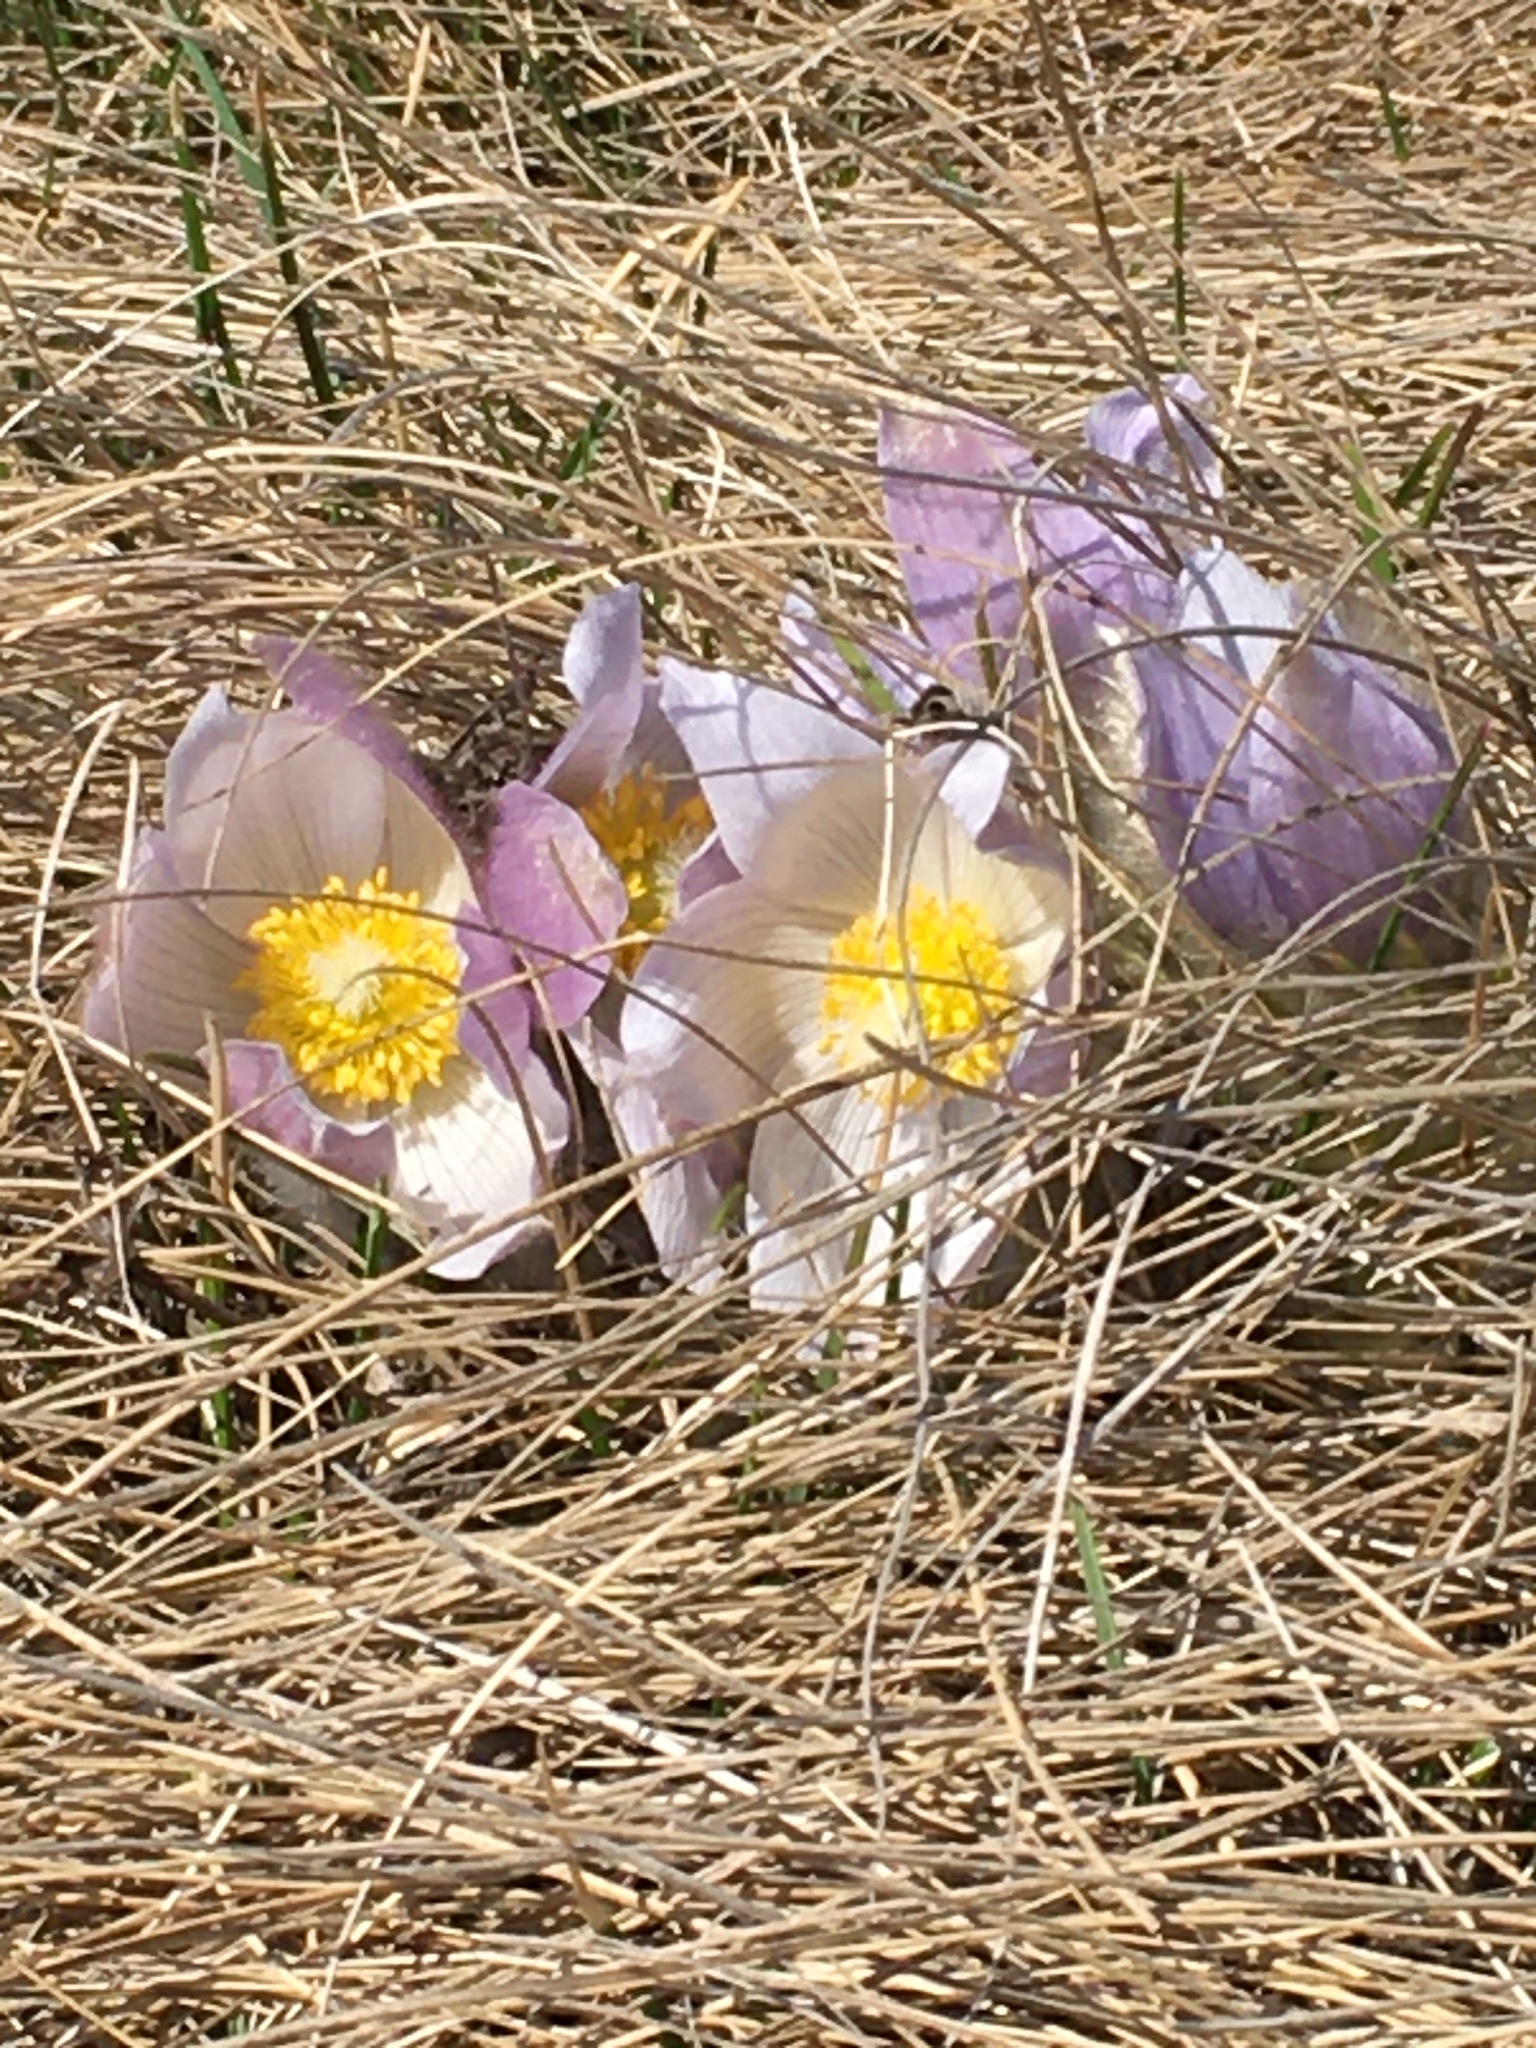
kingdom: Plantae
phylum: Tracheophyta
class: Magnoliopsida
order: Ranunculales
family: Ranunculaceae
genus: Pulsatilla
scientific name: Pulsatilla nuttalliana
